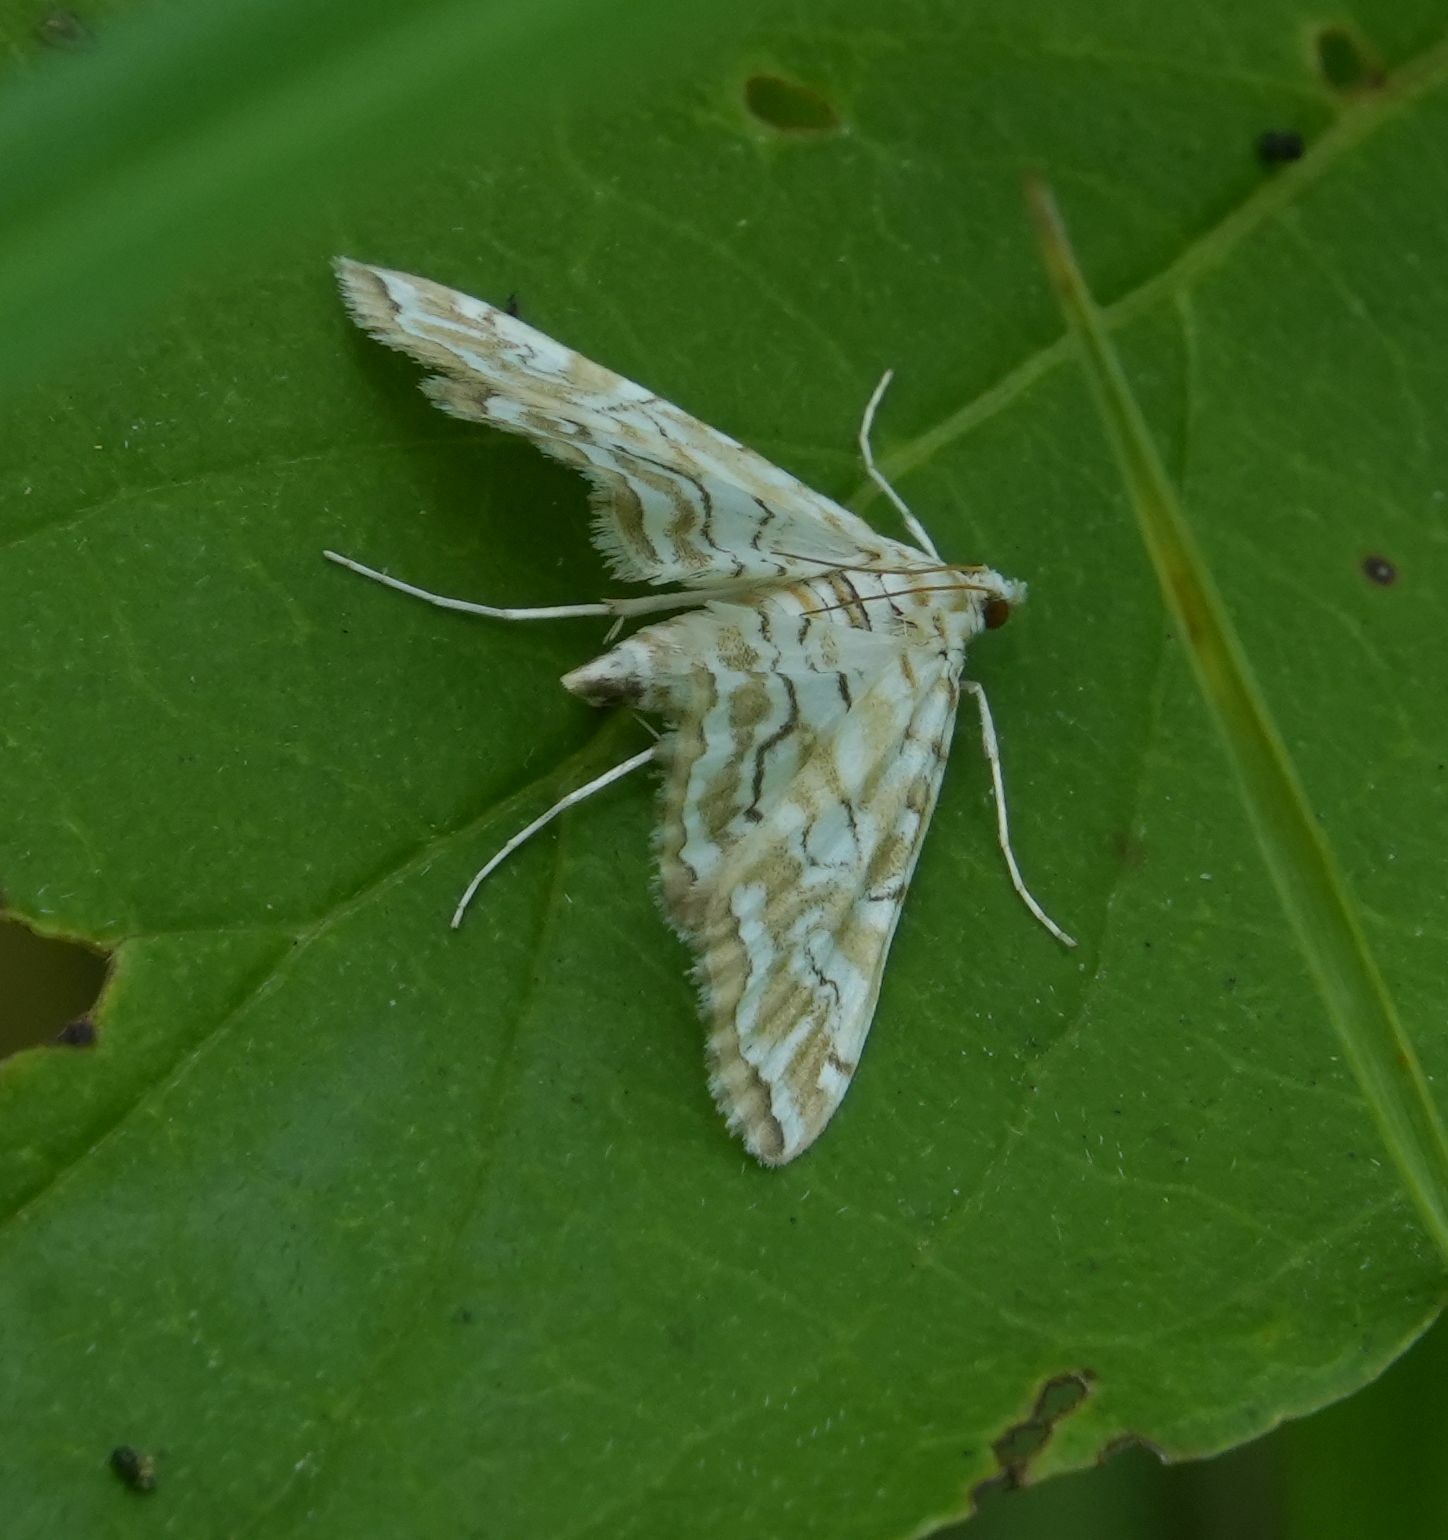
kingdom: Animalia
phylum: Arthropoda
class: Insecta
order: Lepidoptera
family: Crambidae
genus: Elophila
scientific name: Elophila icciusalis
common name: Pondside pyralid moth
